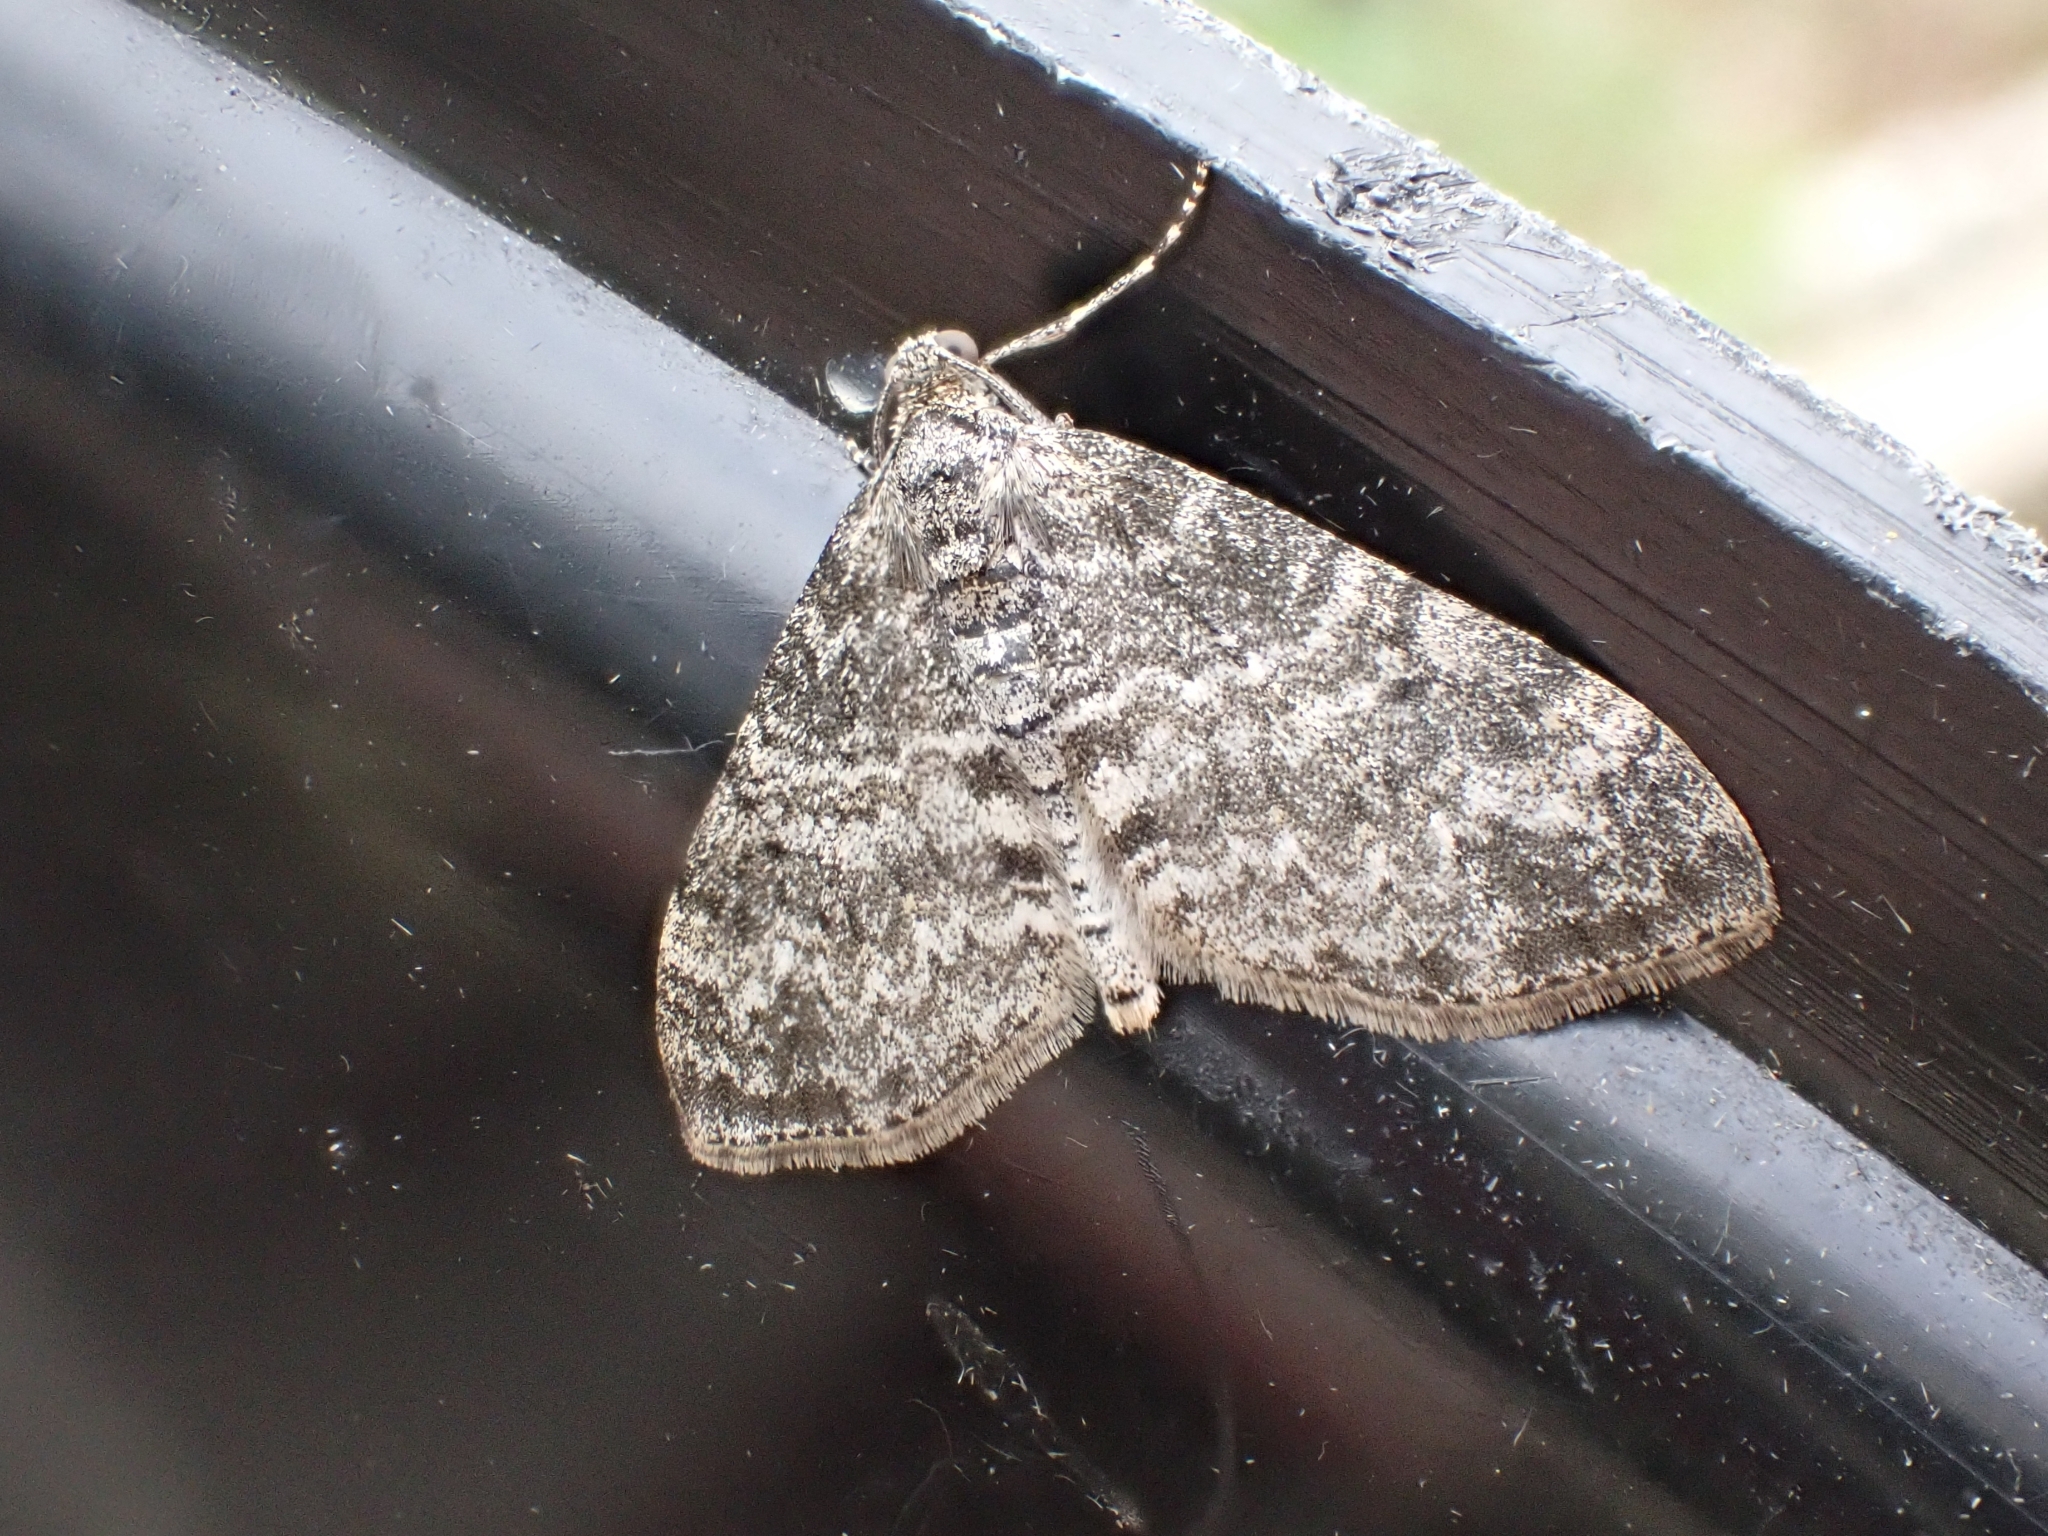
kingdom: Animalia
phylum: Arthropoda
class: Insecta
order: Lepidoptera
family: Geometridae
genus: Lobophora
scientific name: Lobophora halterata
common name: Seraphim
